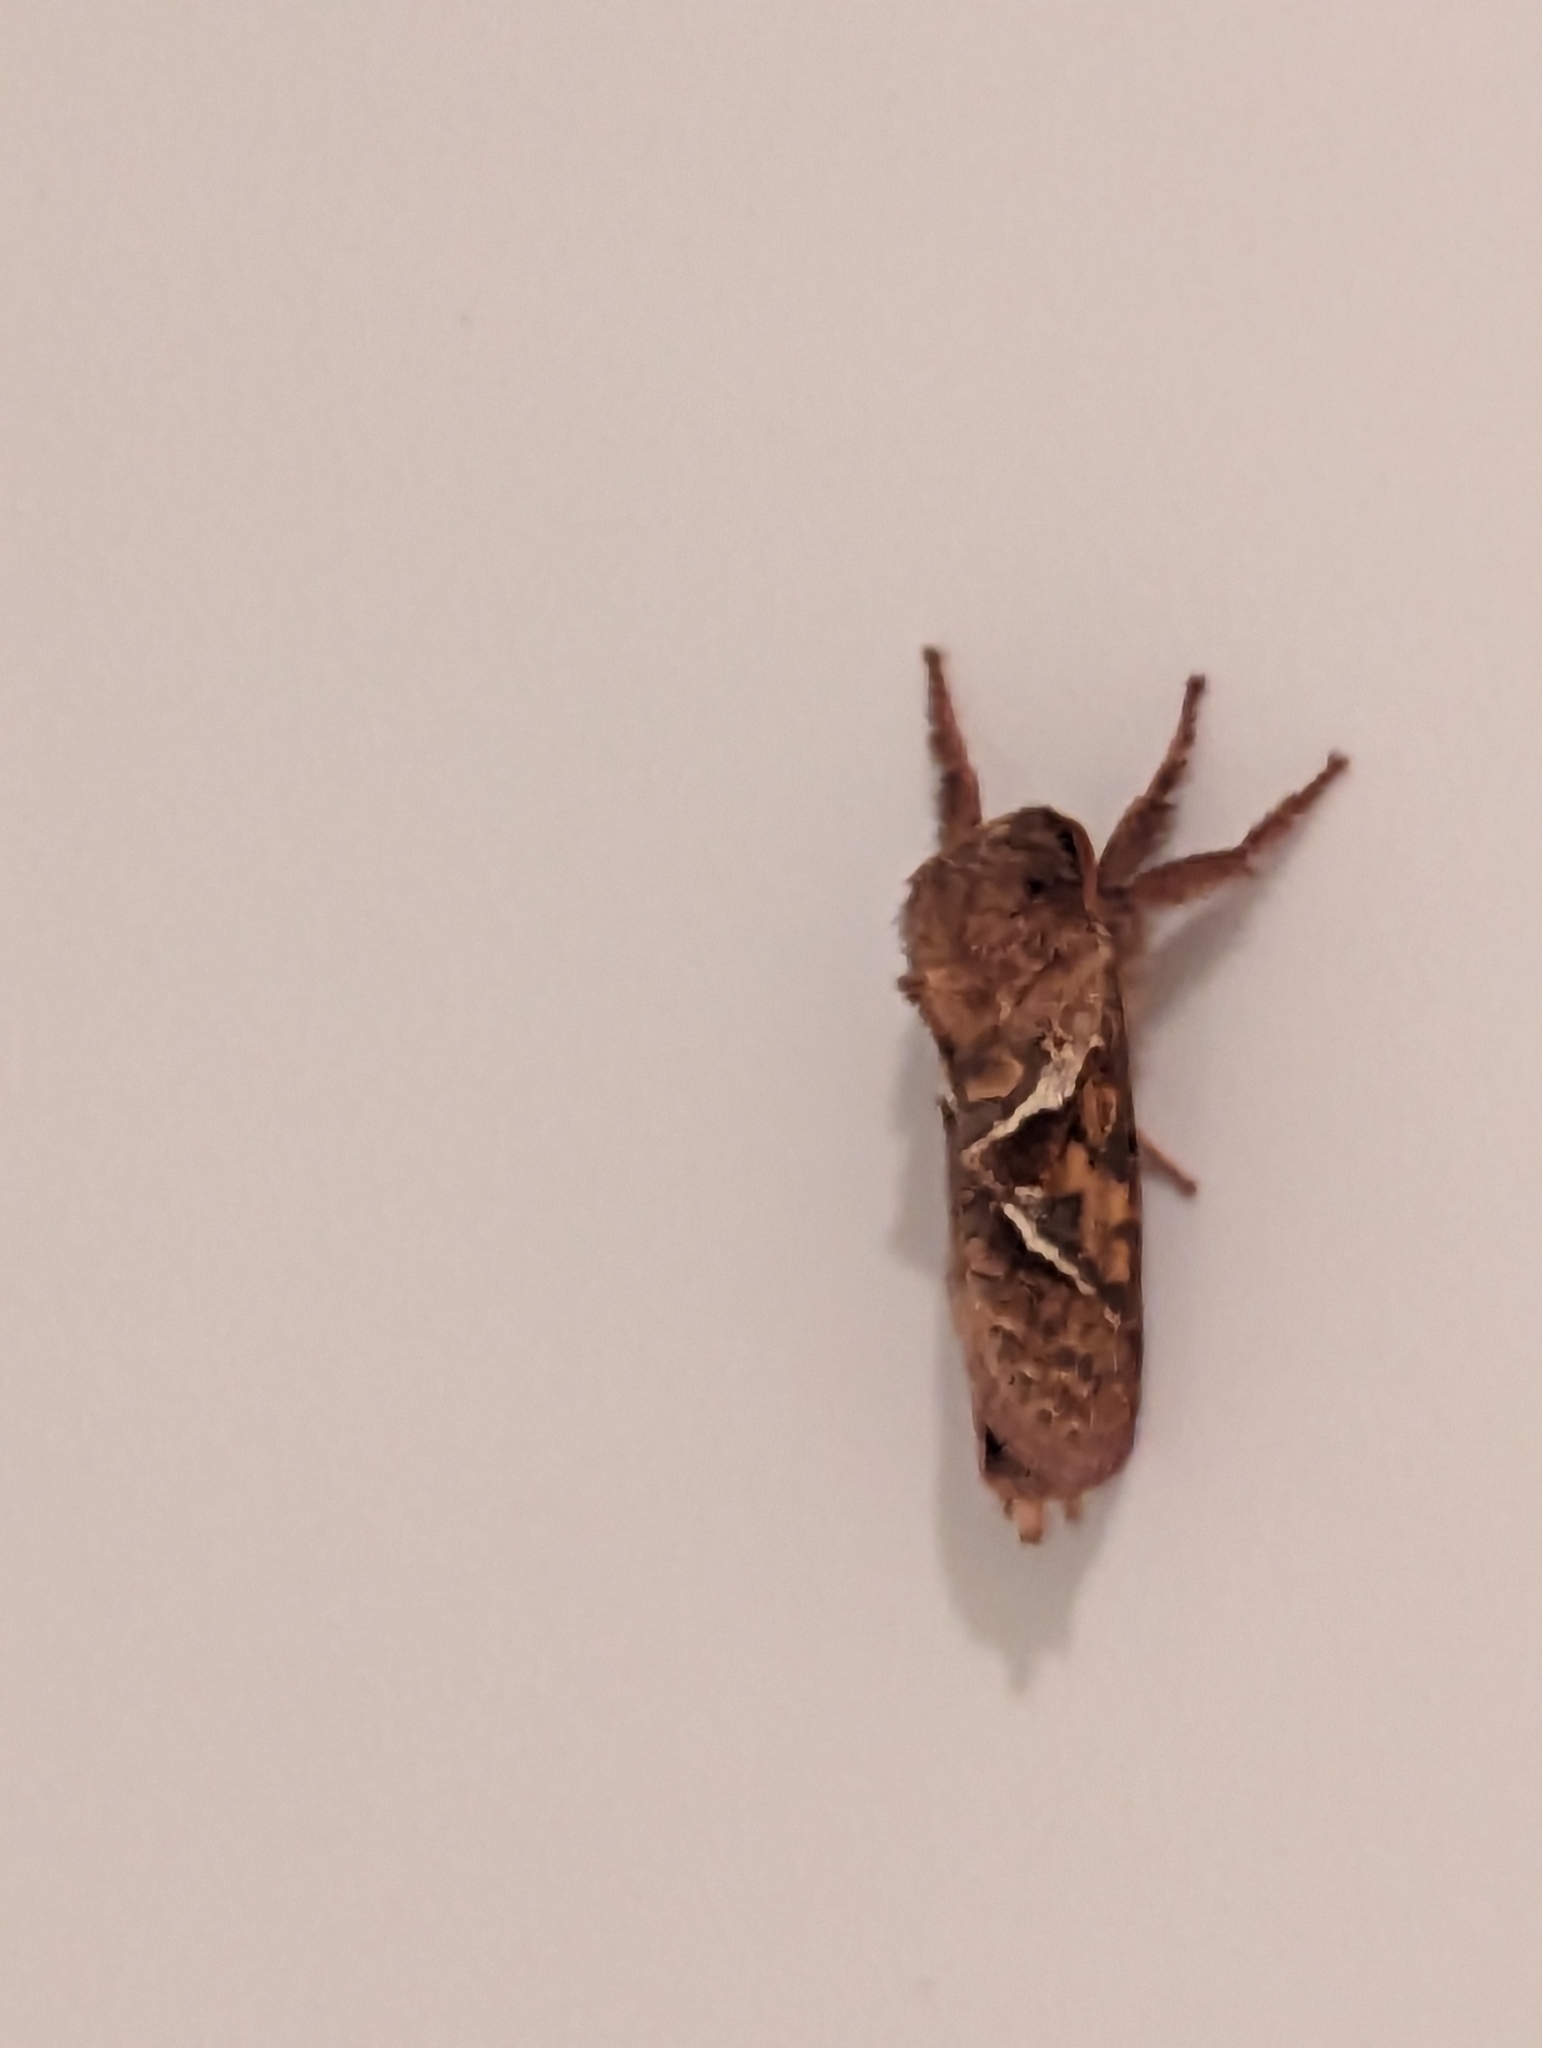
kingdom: Animalia
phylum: Arthropoda
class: Insecta
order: Lepidoptera
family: Hepialidae
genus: Triodia
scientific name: Triodia sylvina
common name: Orange swift
